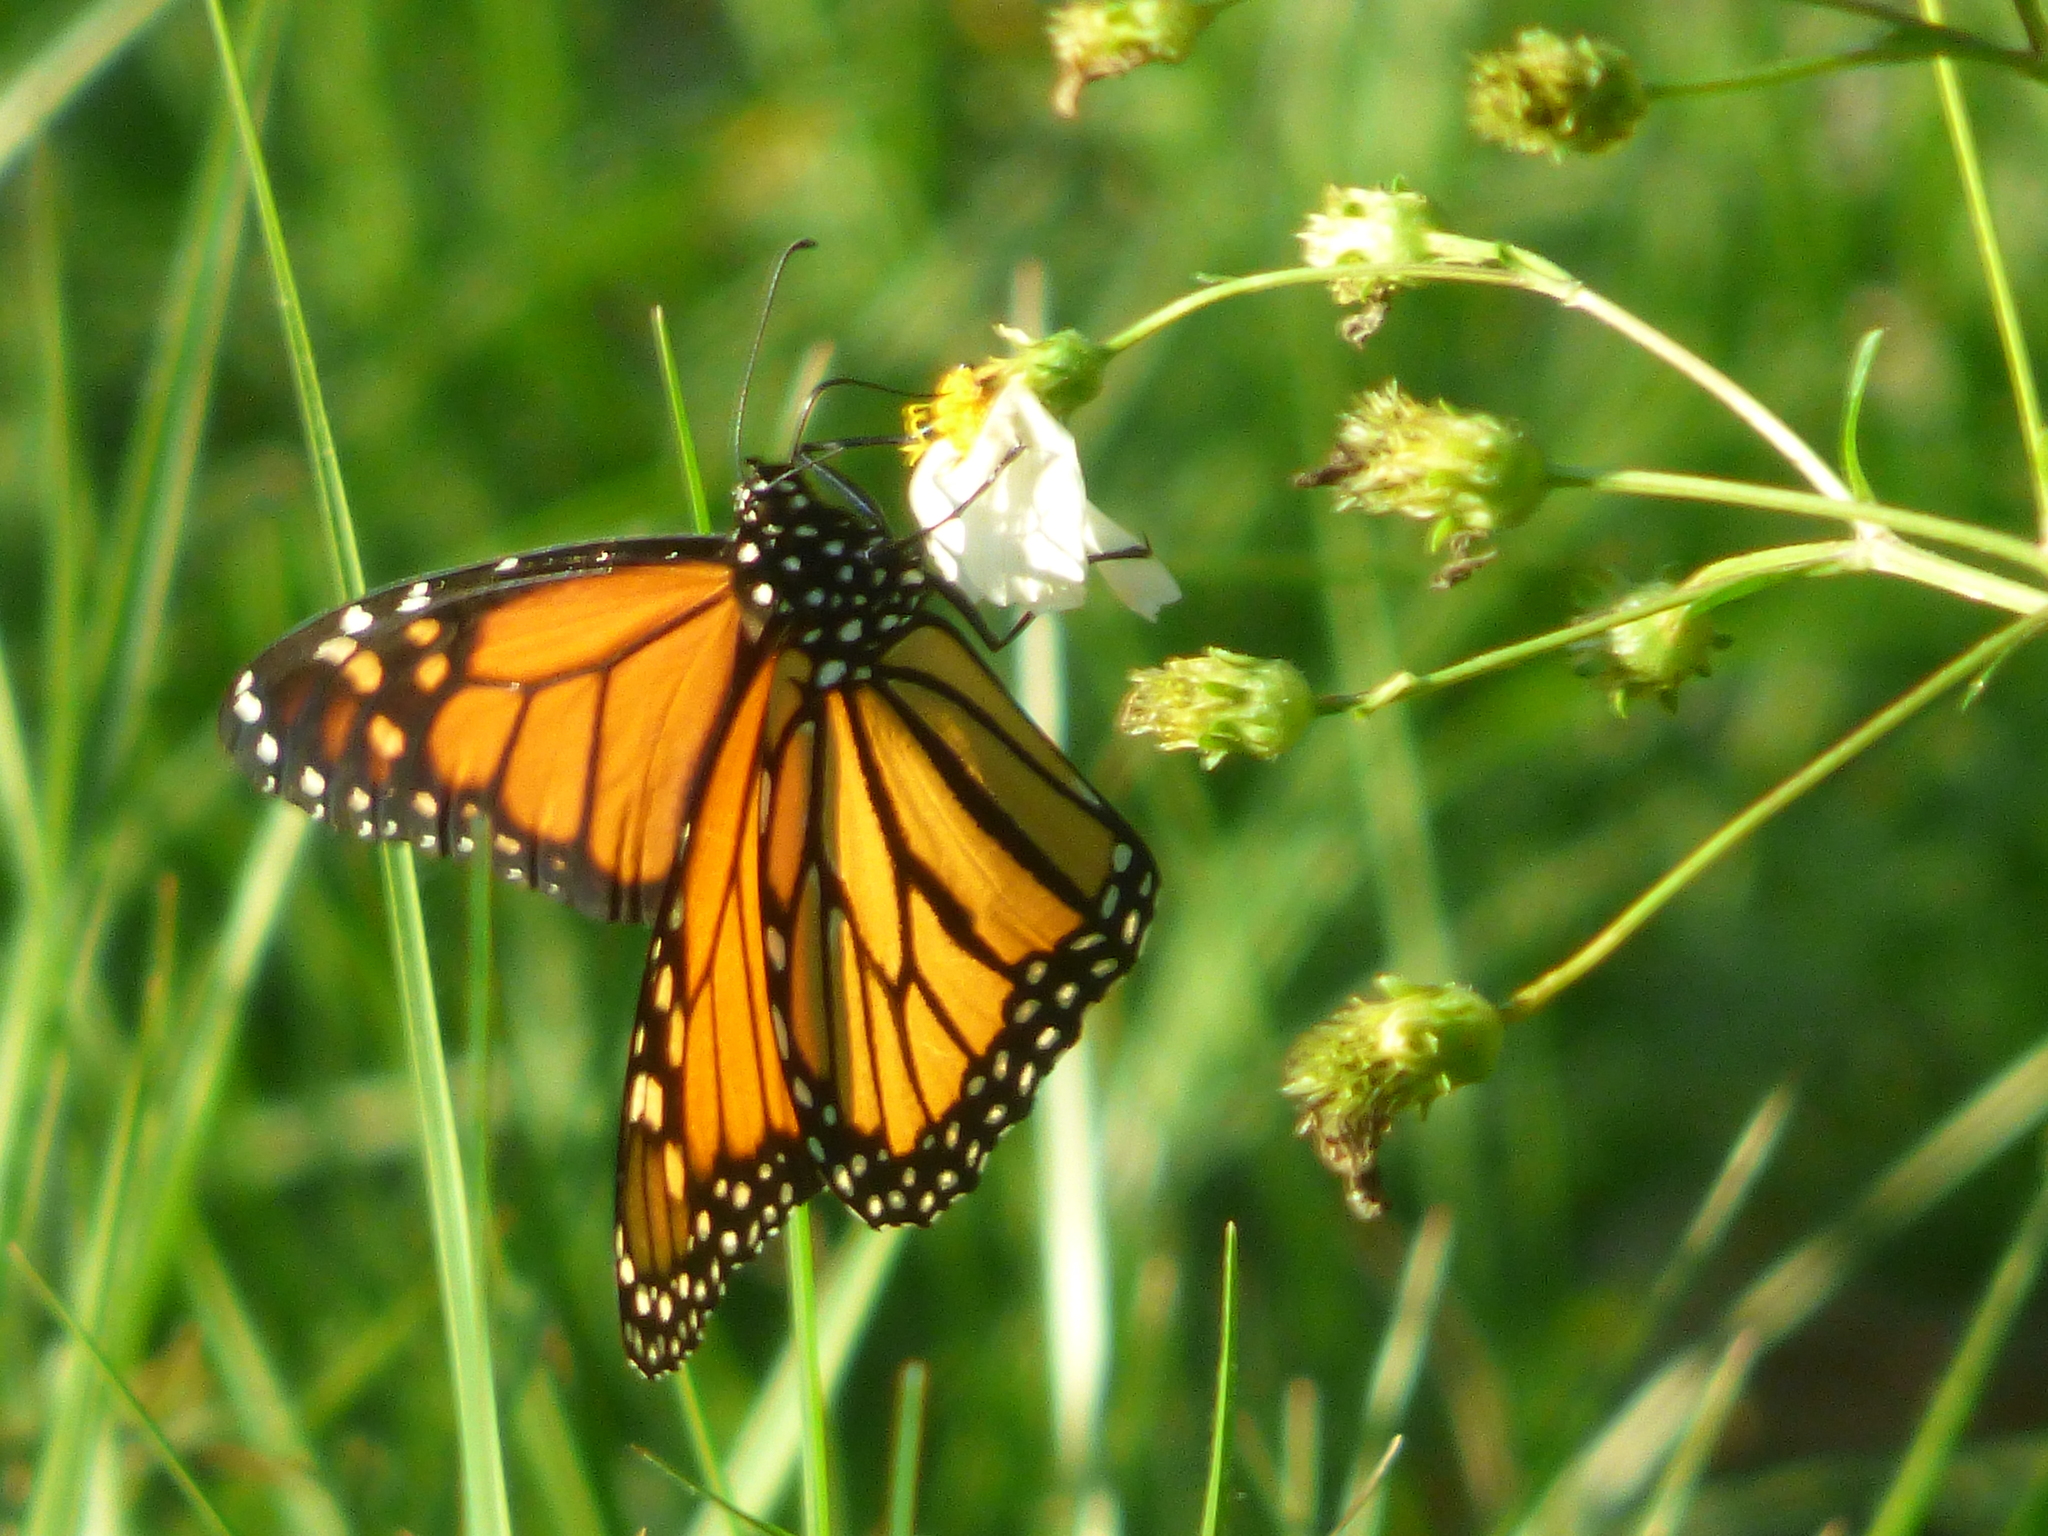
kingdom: Animalia
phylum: Arthropoda
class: Insecta
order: Lepidoptera
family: Nymphalidae
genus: Danaus
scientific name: Danaus plexippus
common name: Monarch
